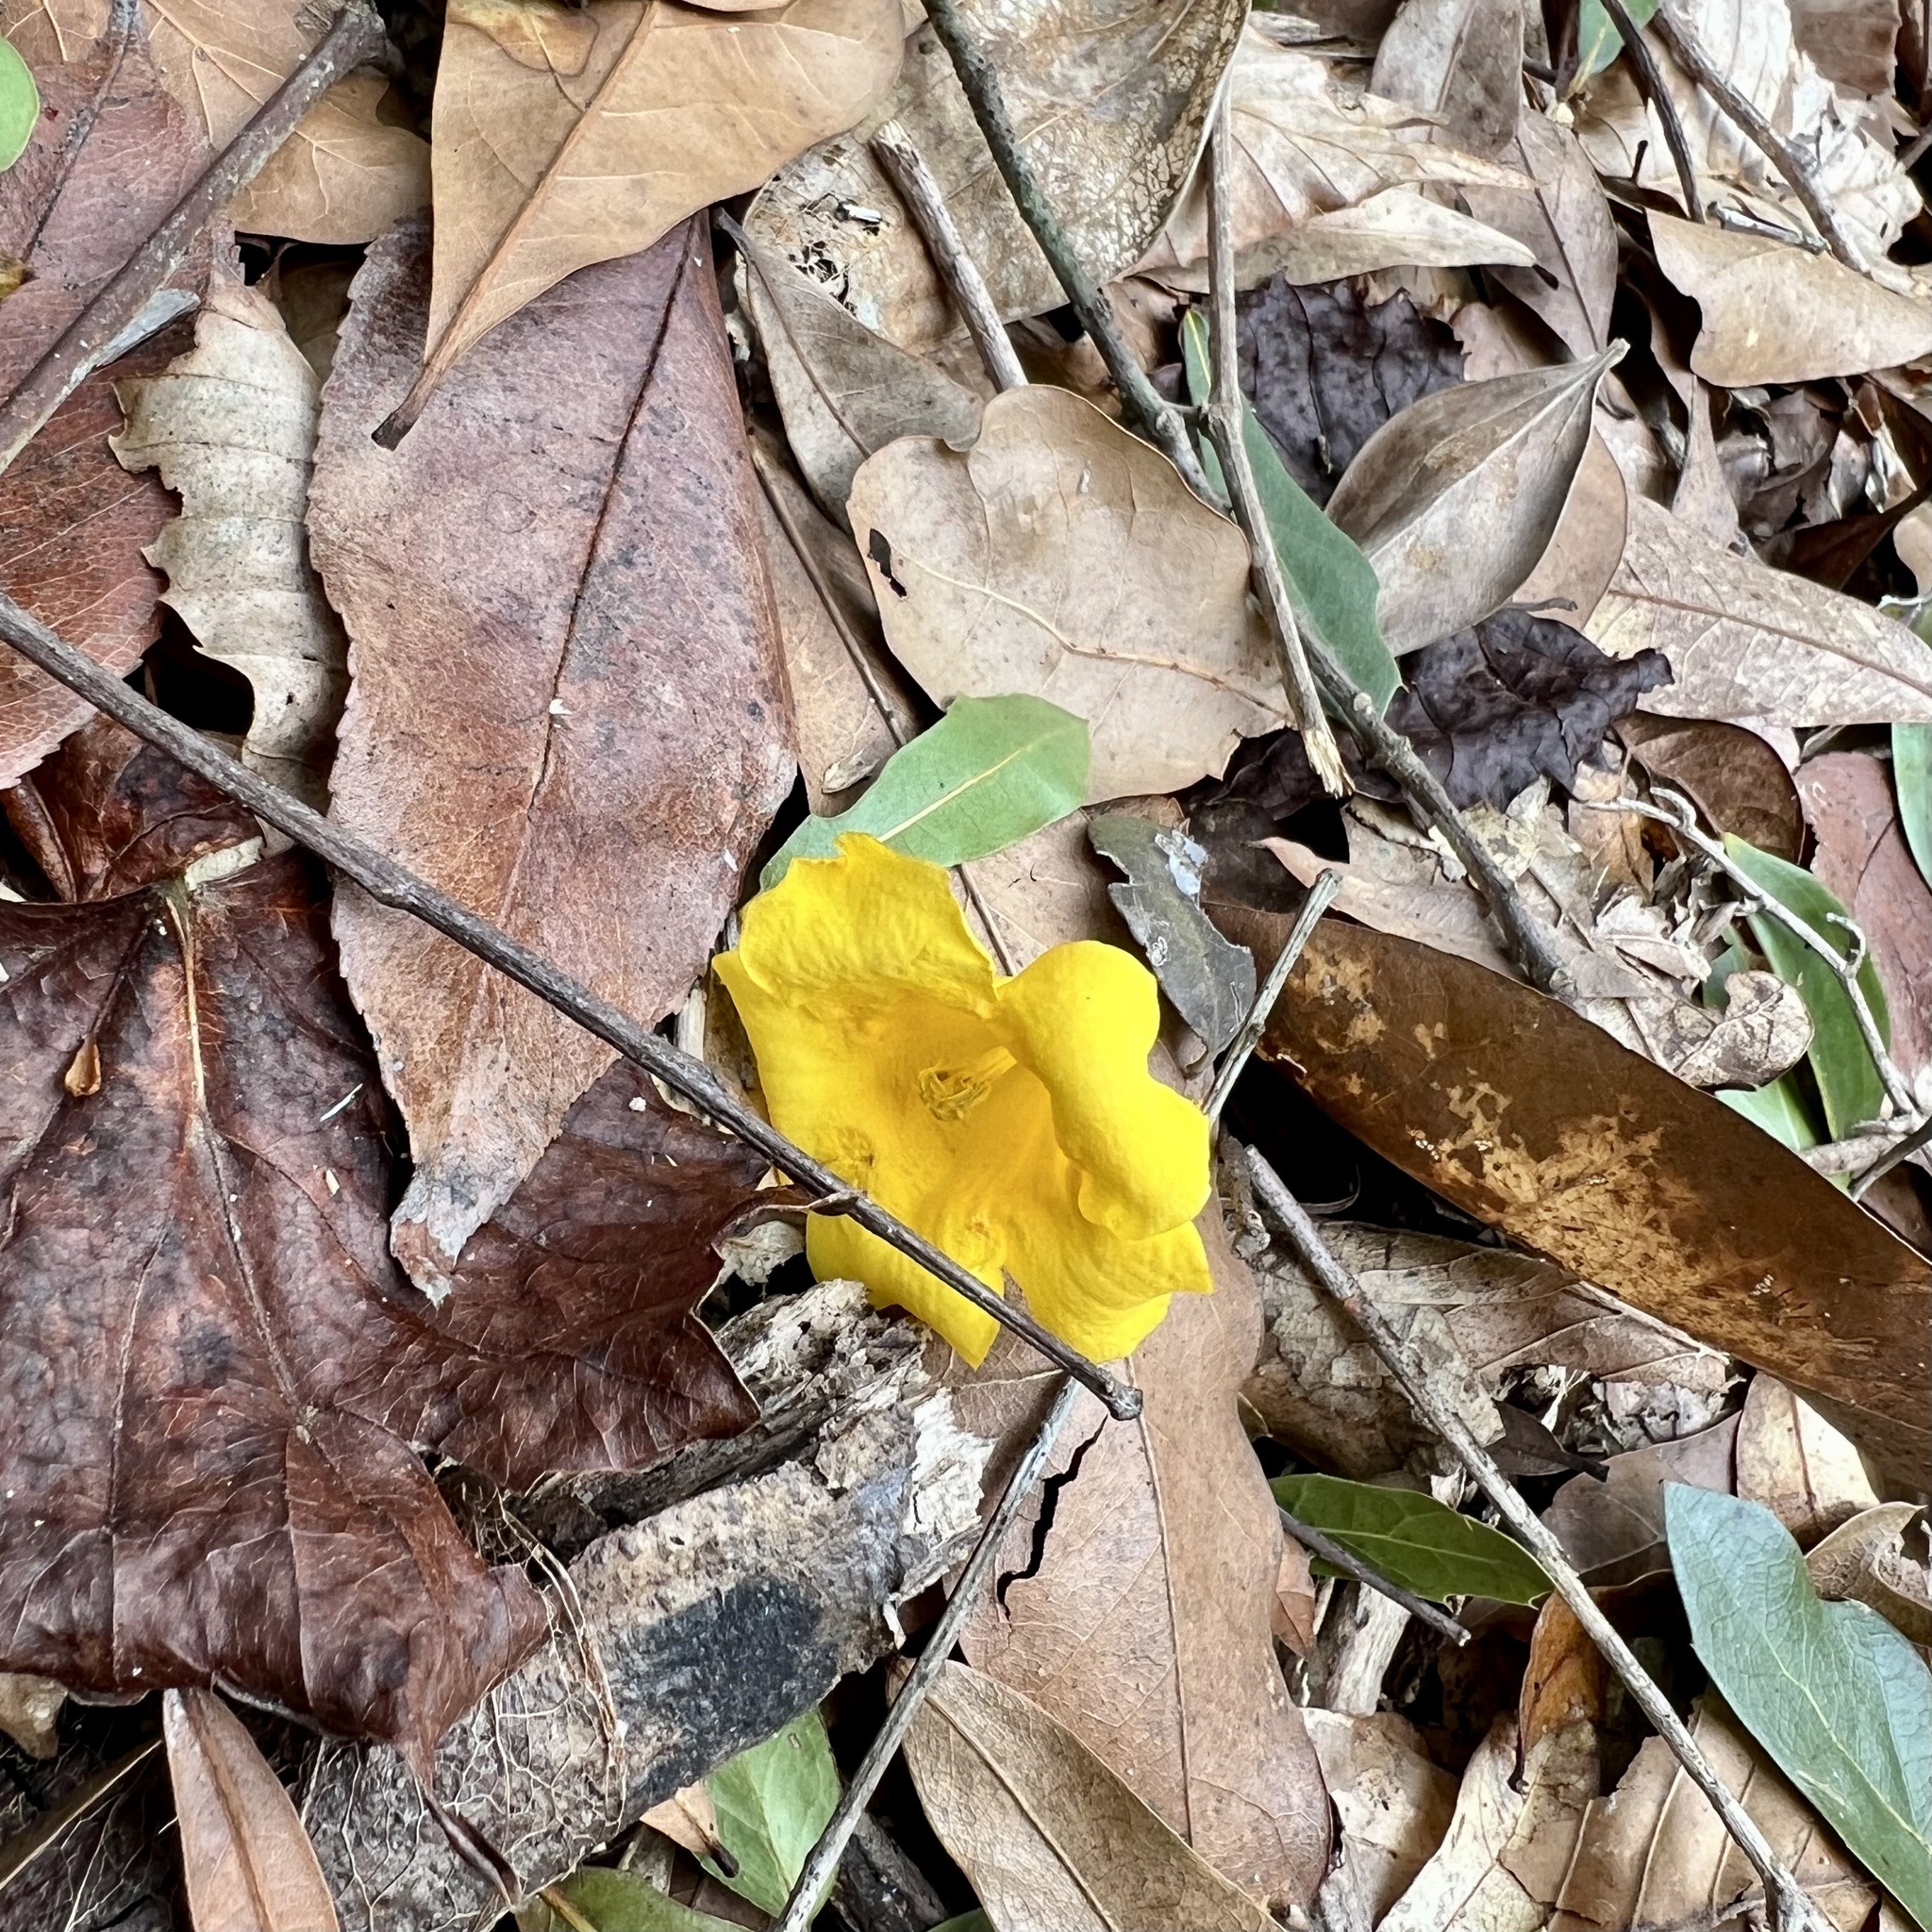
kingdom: Plantae
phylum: Tracheophyta
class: Magnoliopsida
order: Gentianales
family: Gelsemiaceae
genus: Gelsemium
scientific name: Gelsemium sempervirens
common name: Carolina-jasmine
